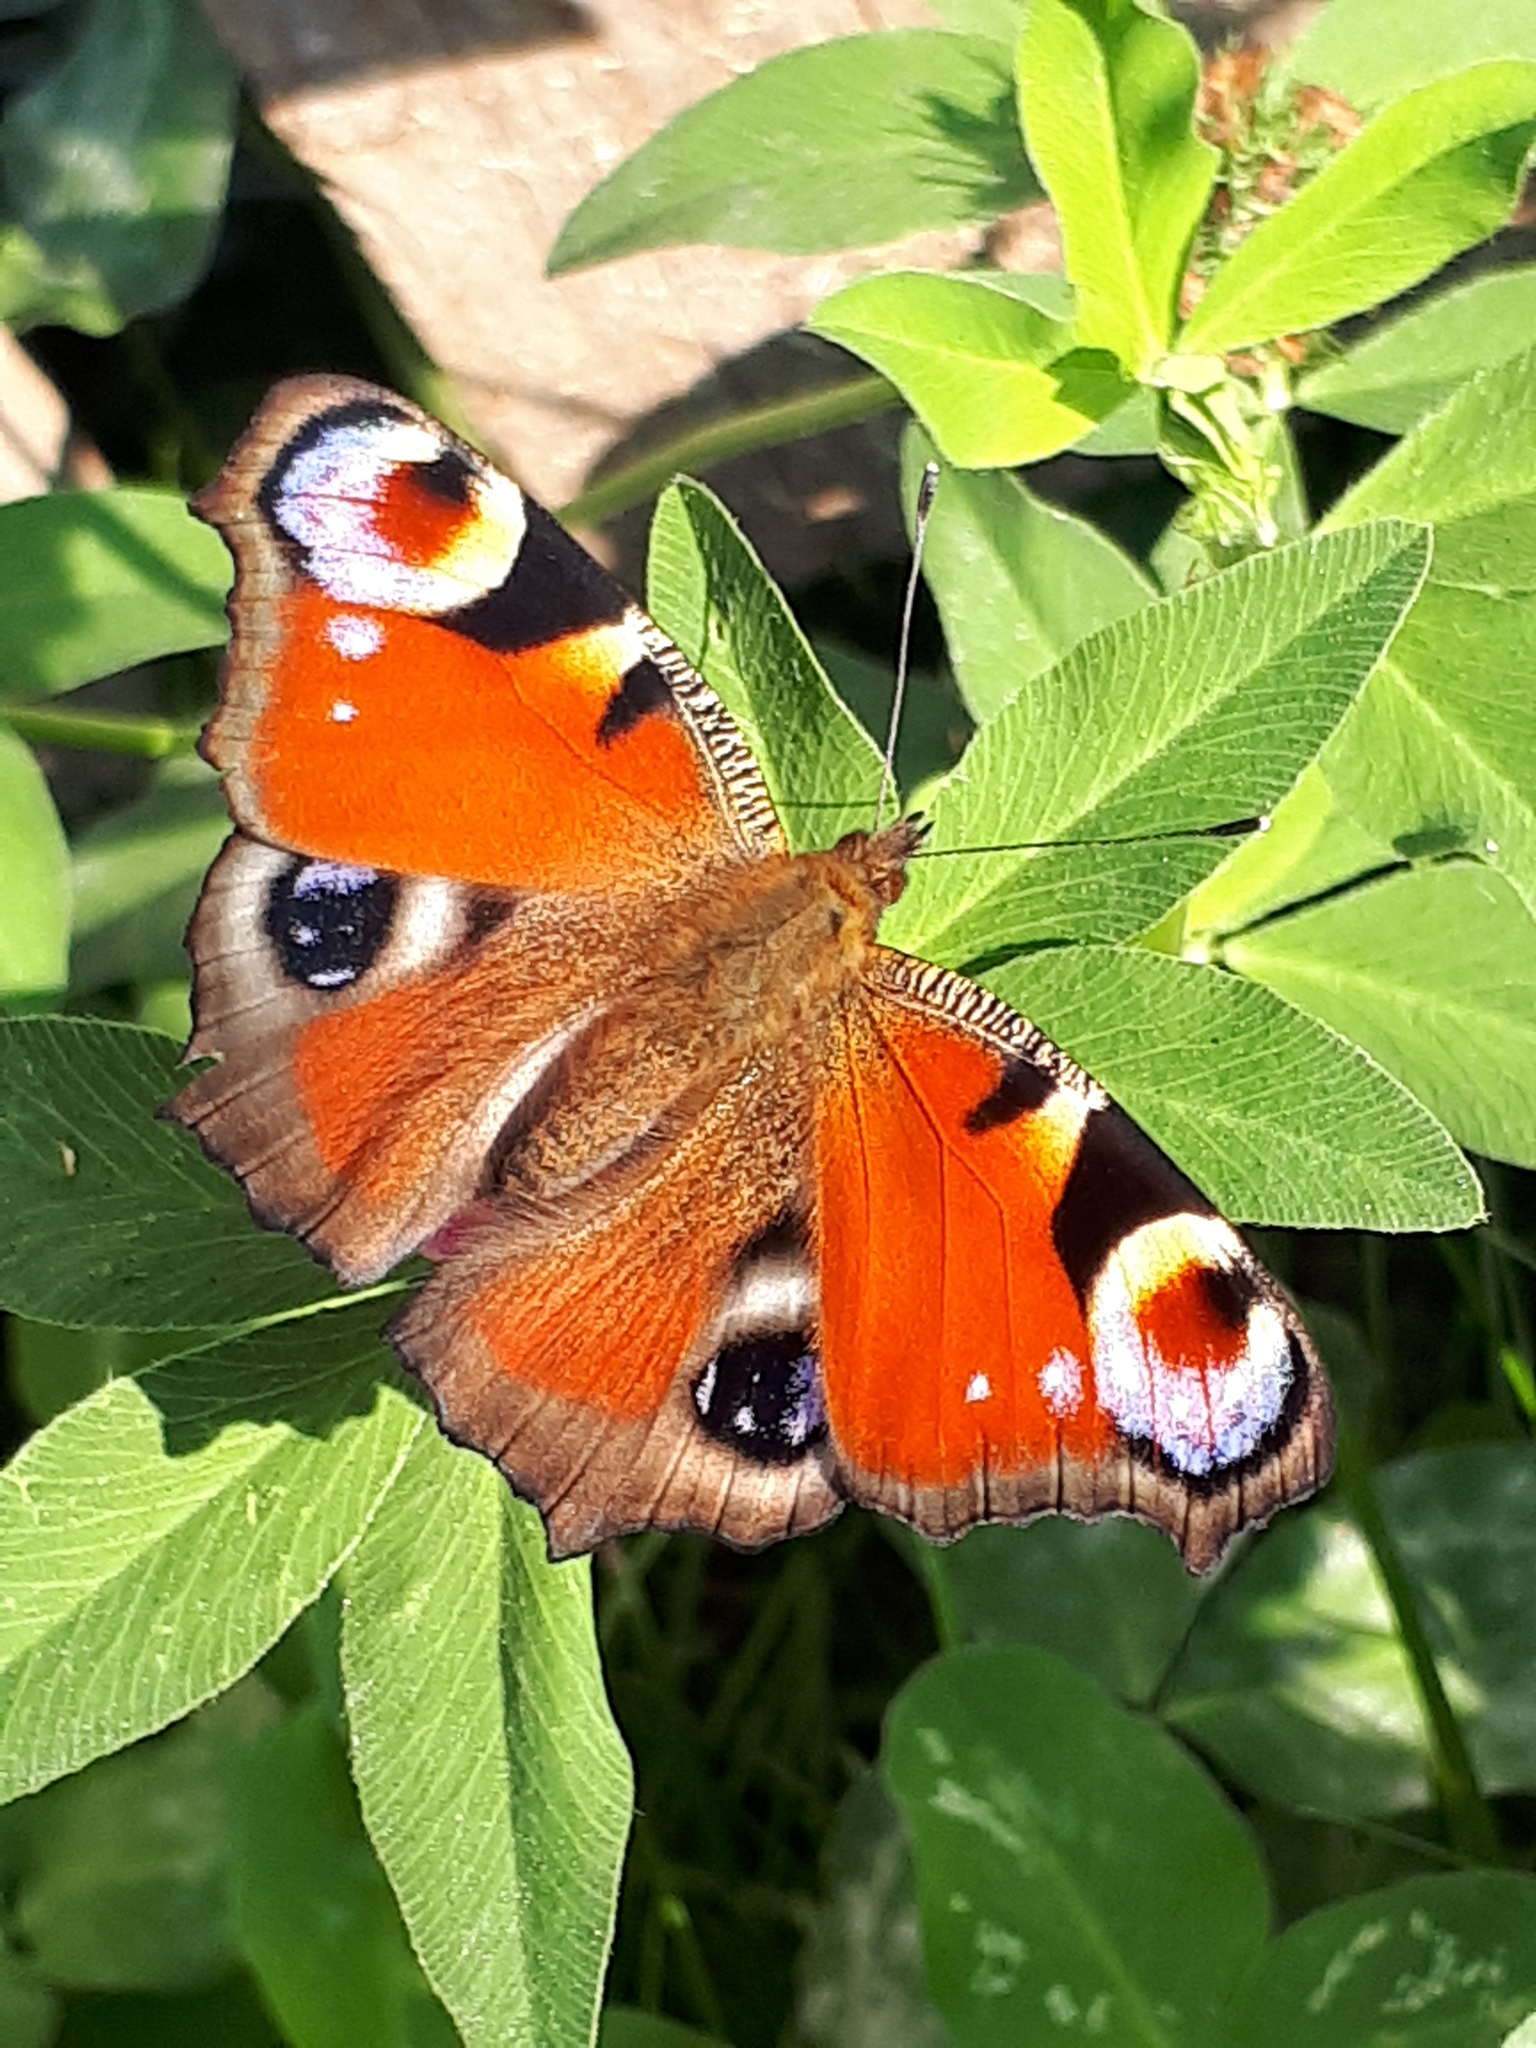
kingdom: Animalia
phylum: Arthropoda
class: Insecta
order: Lepidoptera
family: Nymphalidae
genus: Aglais
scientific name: Aglais io
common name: Peacock
